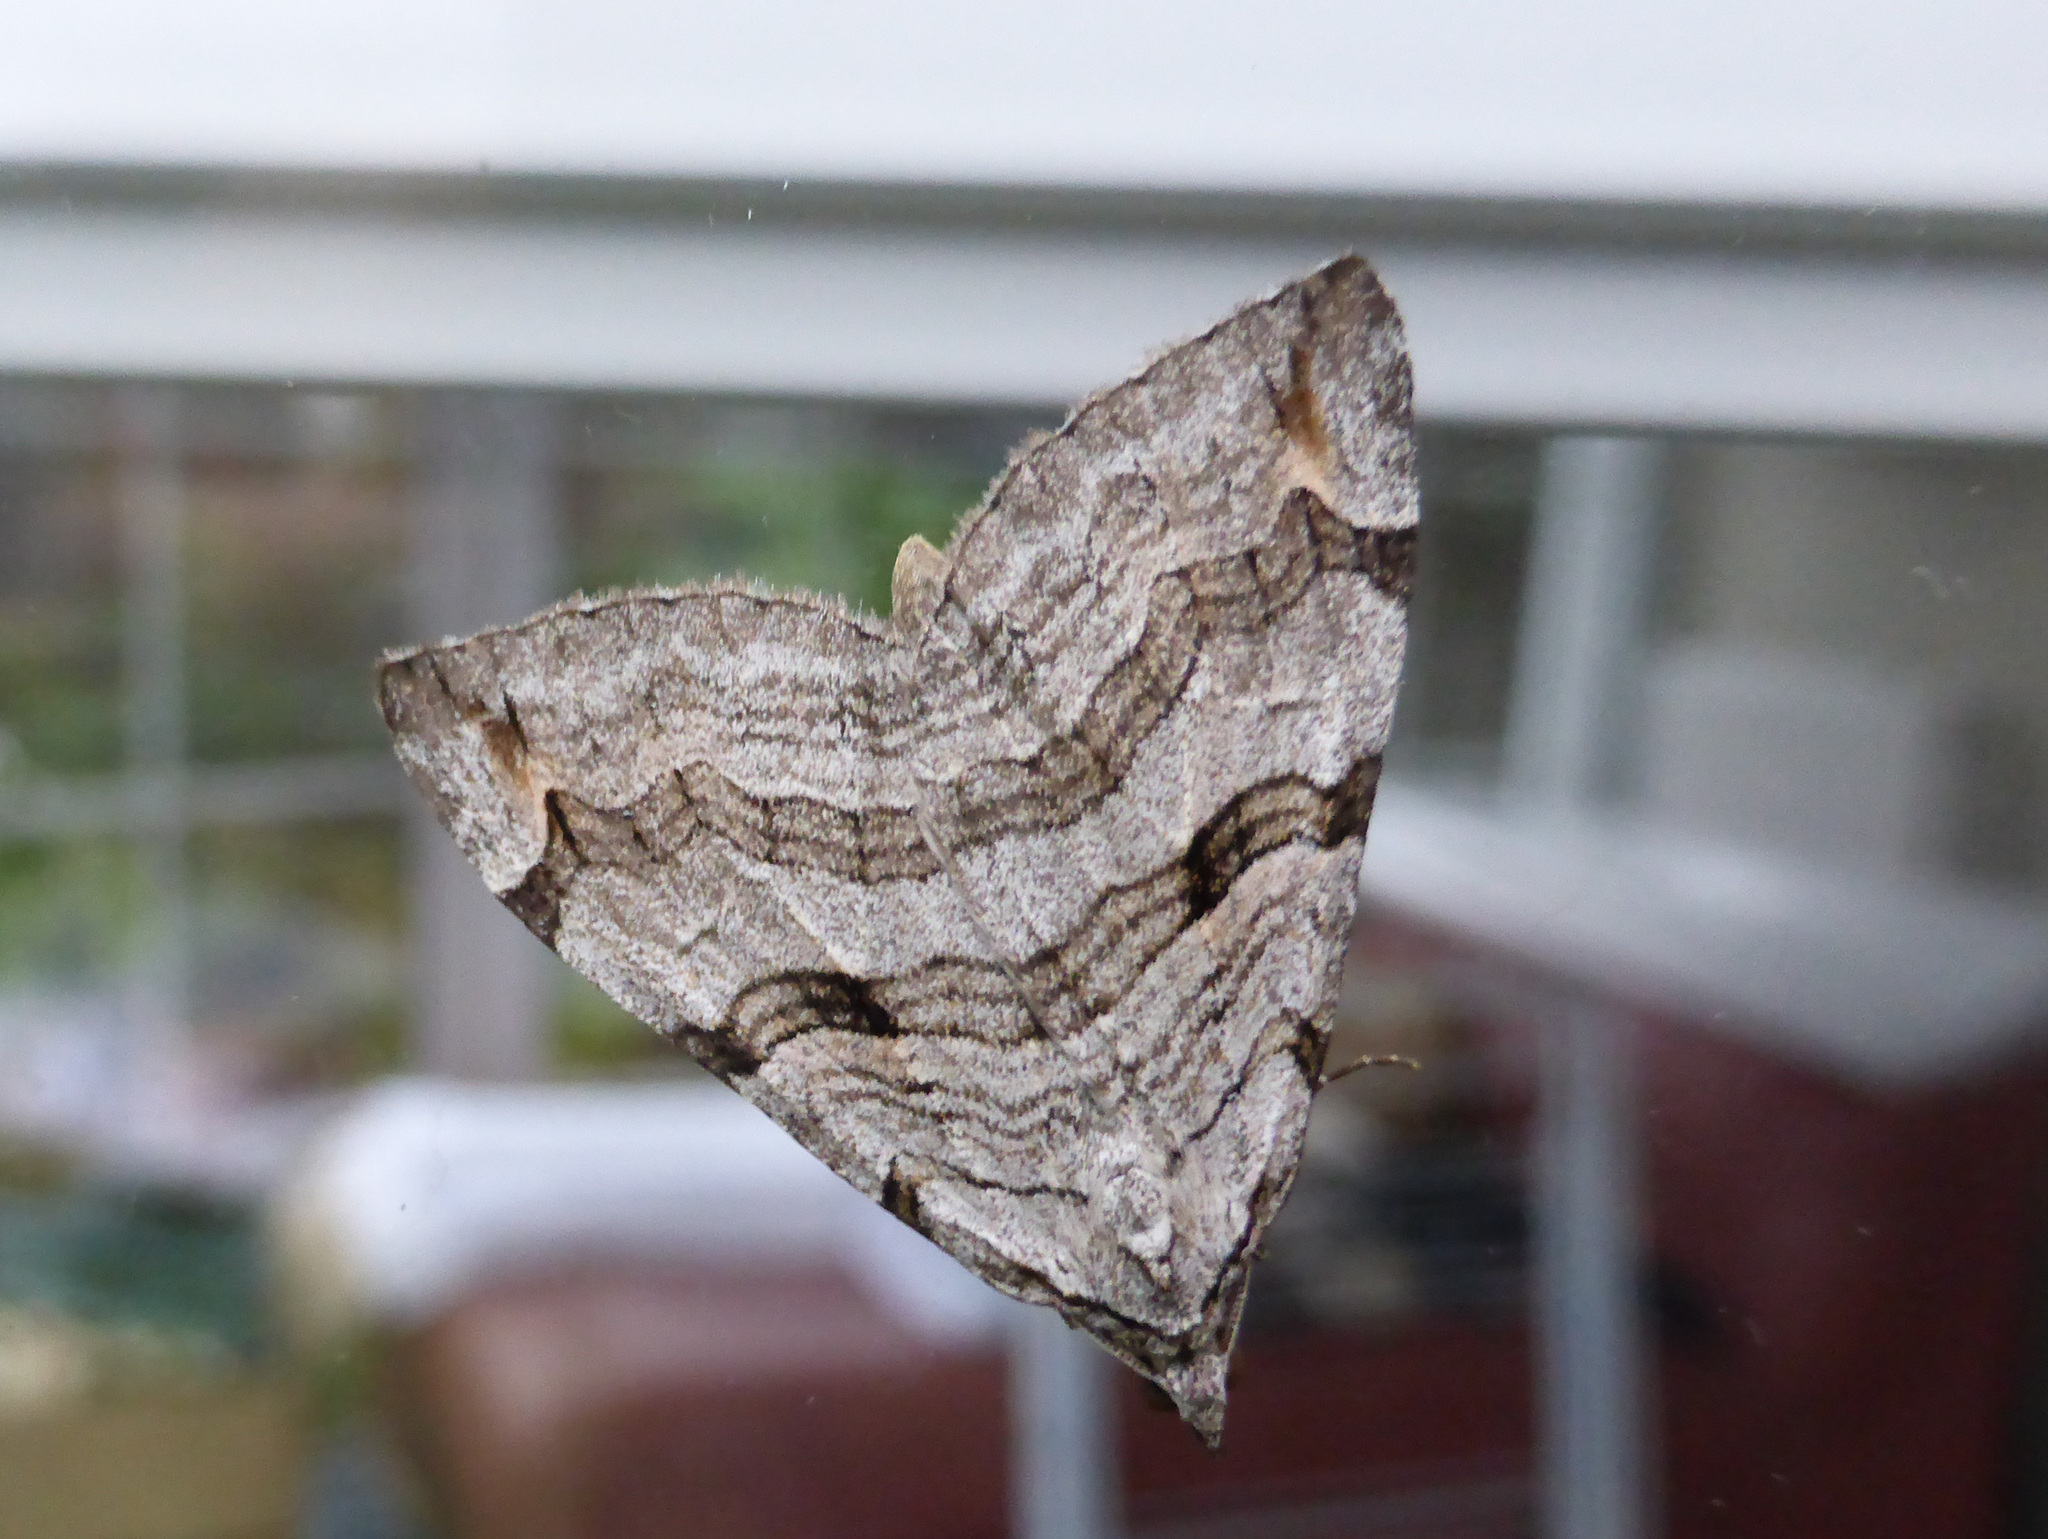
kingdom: Animalia
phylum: Arthropoda
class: Insecta
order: Lepidoptera
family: Geometridae
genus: Aplocera
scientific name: Aplocera plagiata
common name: Treble-bar
